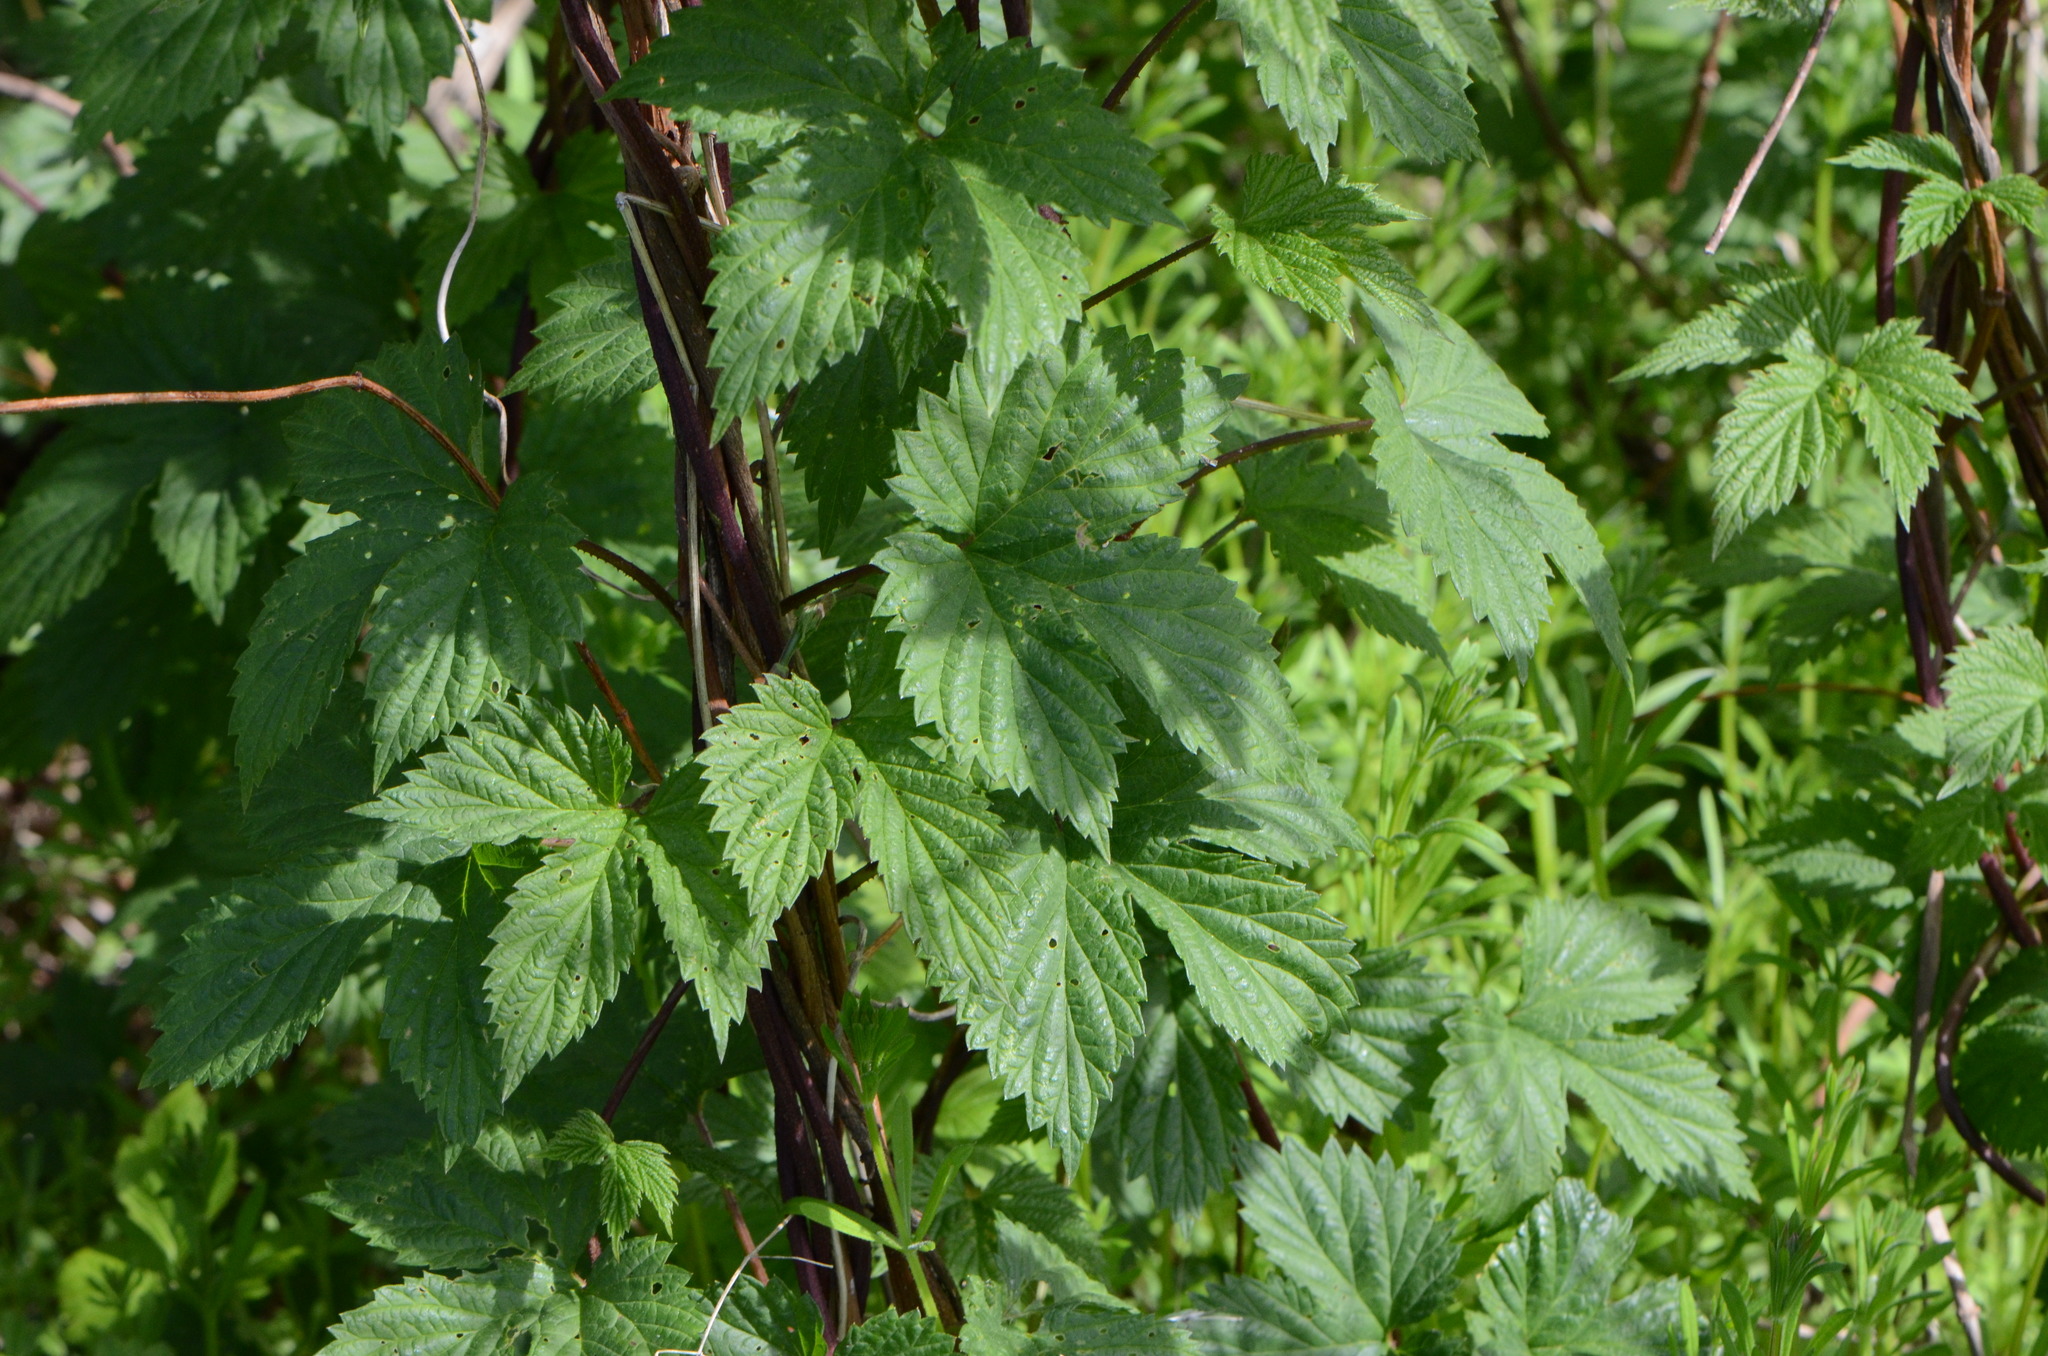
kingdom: Plantae
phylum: Tracheophyta
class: Magnoliopsida
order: Rosales
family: Cannabaceae
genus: Humulus
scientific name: Humulus lupulus
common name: Hop
